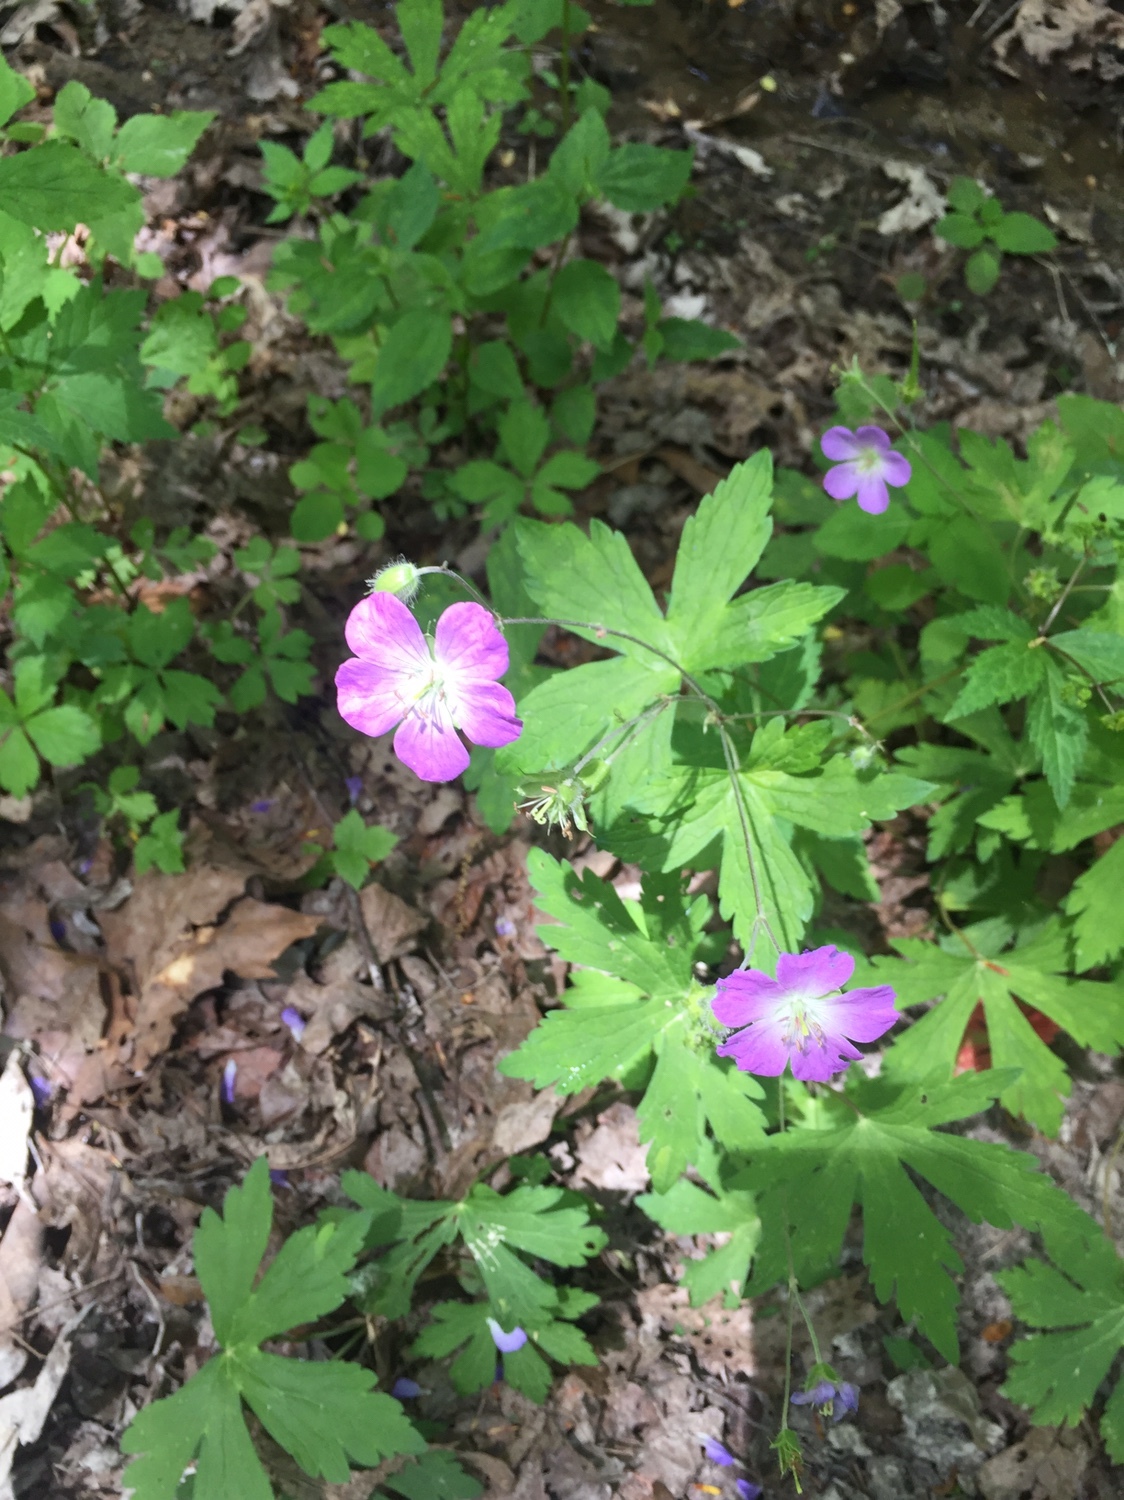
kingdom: Plantae
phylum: Tracheophyta
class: Magnoliopsida
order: Geraniales
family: Geraniaceae
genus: Geranium
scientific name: Geranium maculatum
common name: Spotted geranium
